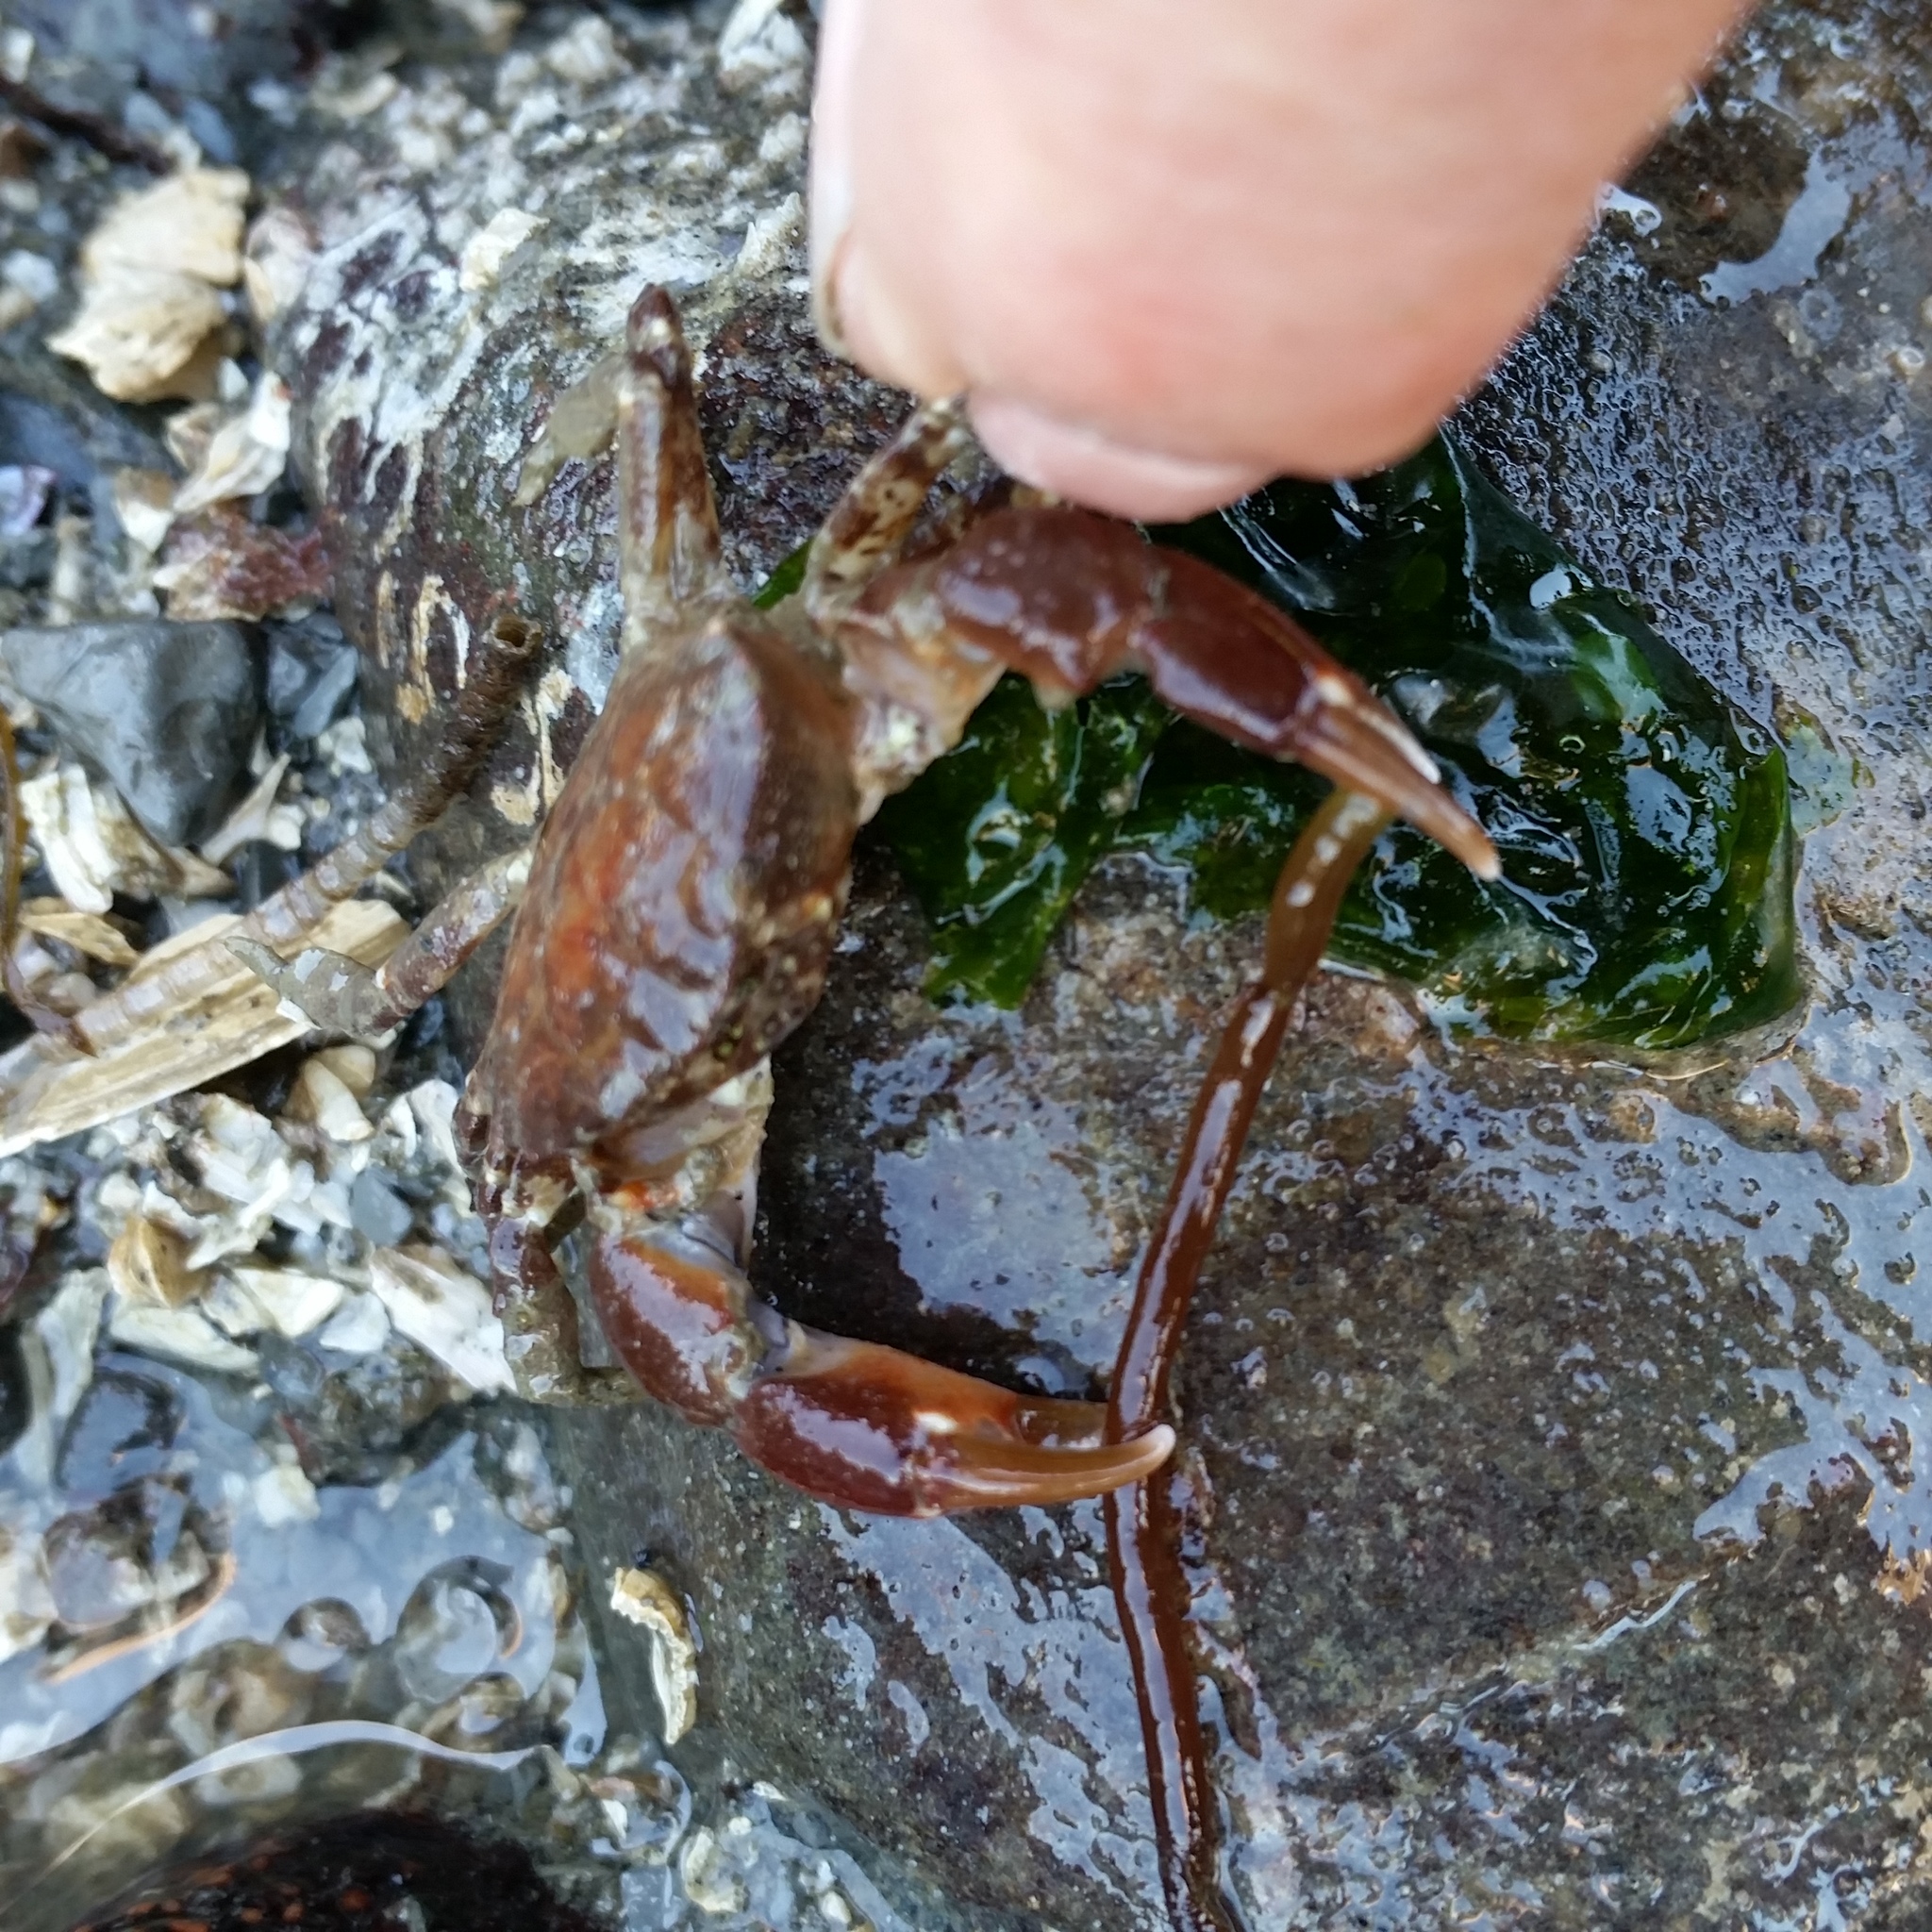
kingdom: Animalia
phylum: Arthropoda
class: Malacostraca
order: Decapoda
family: Panopeidae
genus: Lophopanopeus
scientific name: Lophopanopeus bellus
